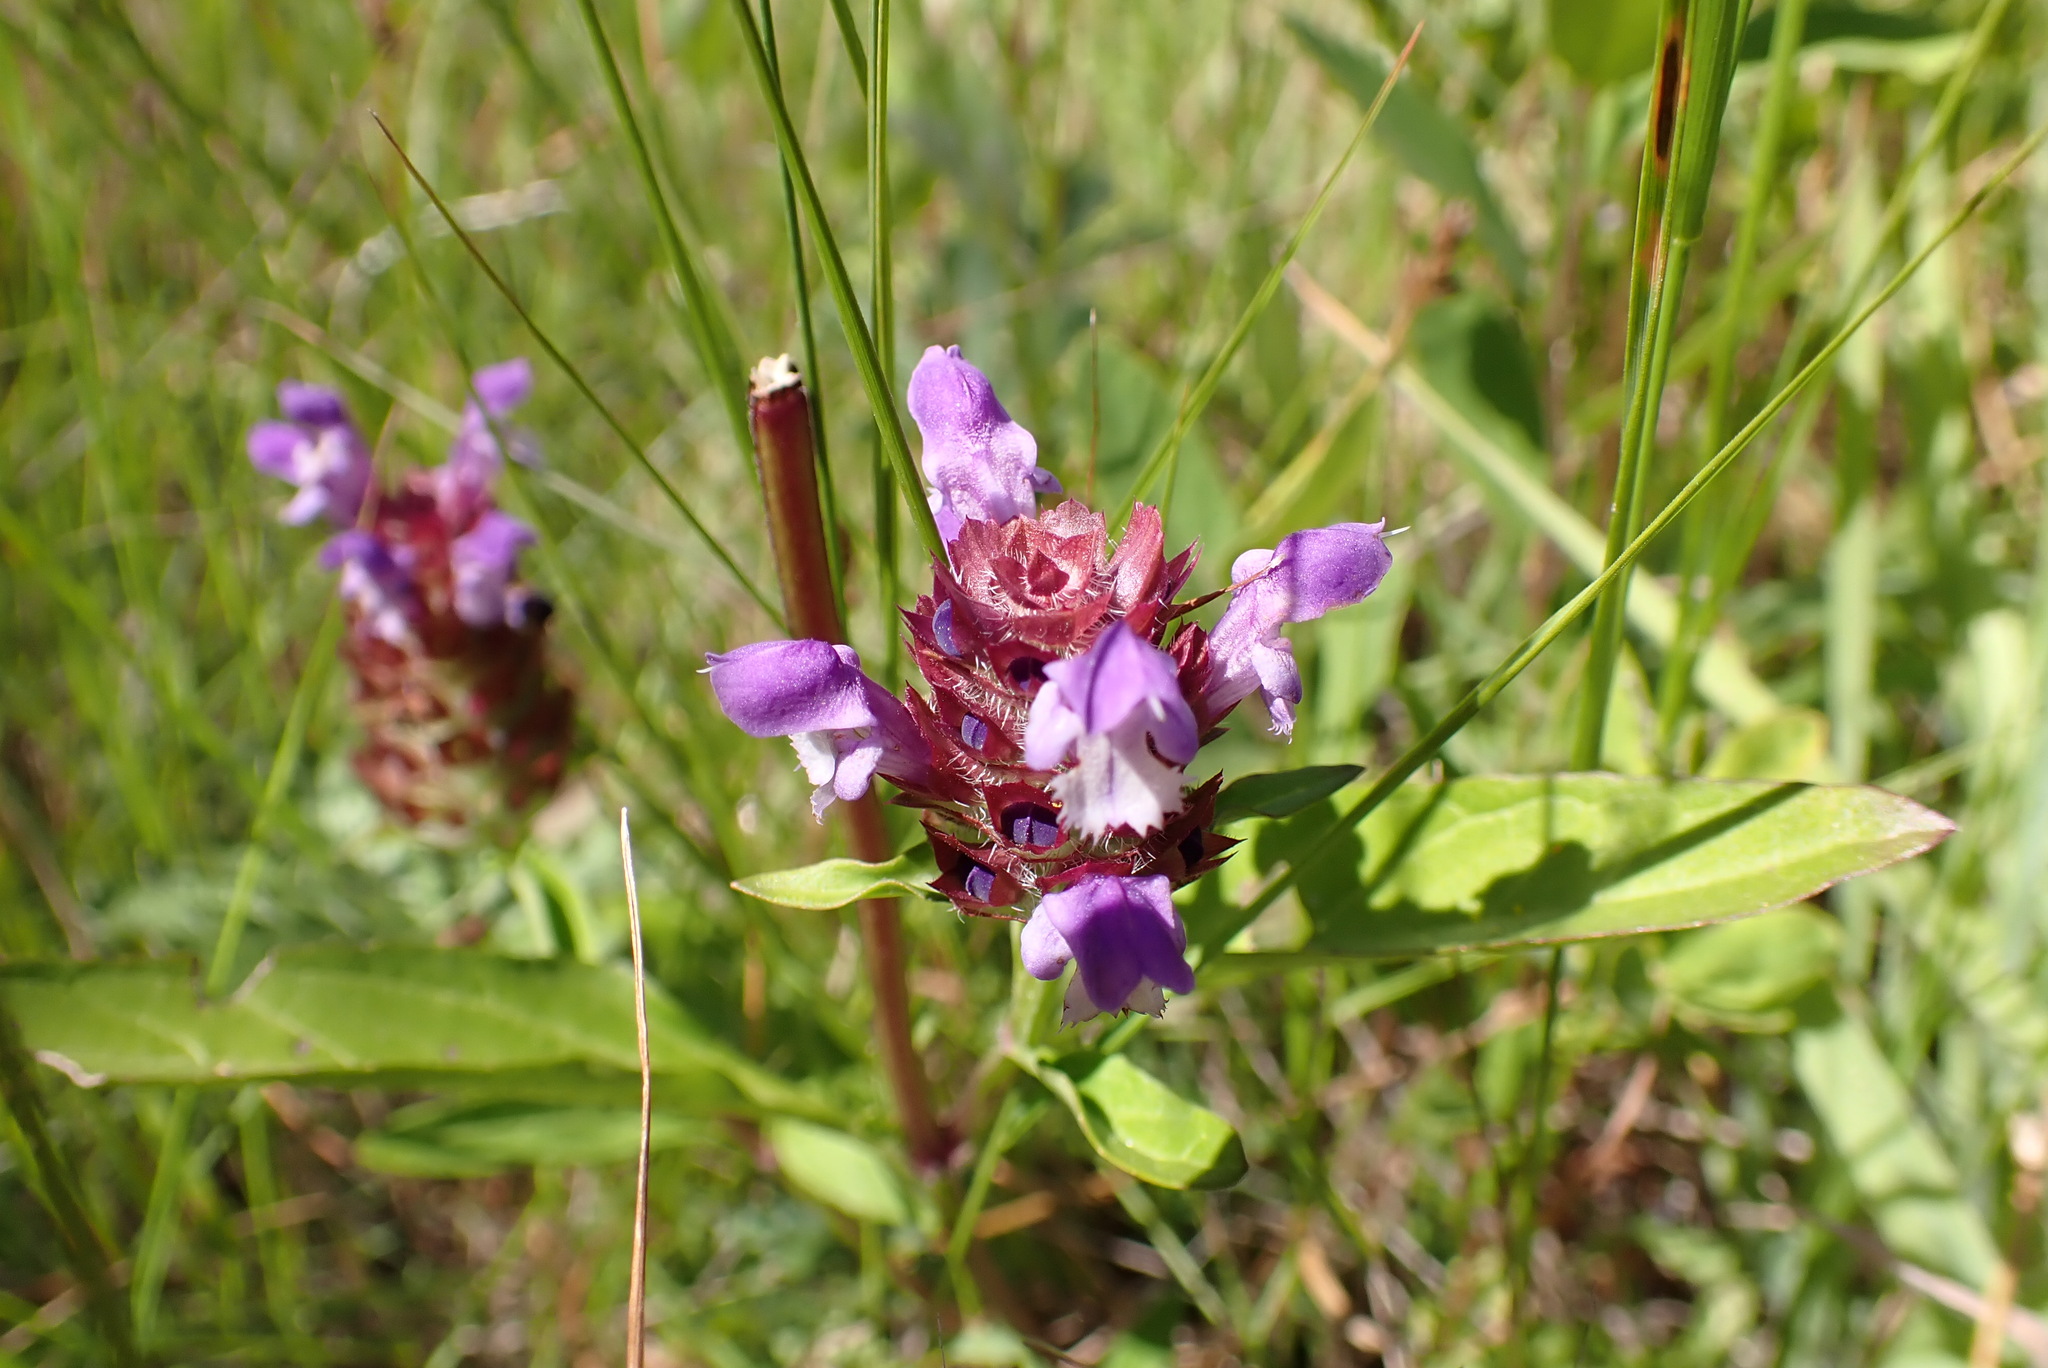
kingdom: Plantae
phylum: Tracheophyta
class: Magnoliopsida
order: Lamiales
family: Lamiaceae
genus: Prunella
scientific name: Prunella vulgaris
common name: Heal-all
